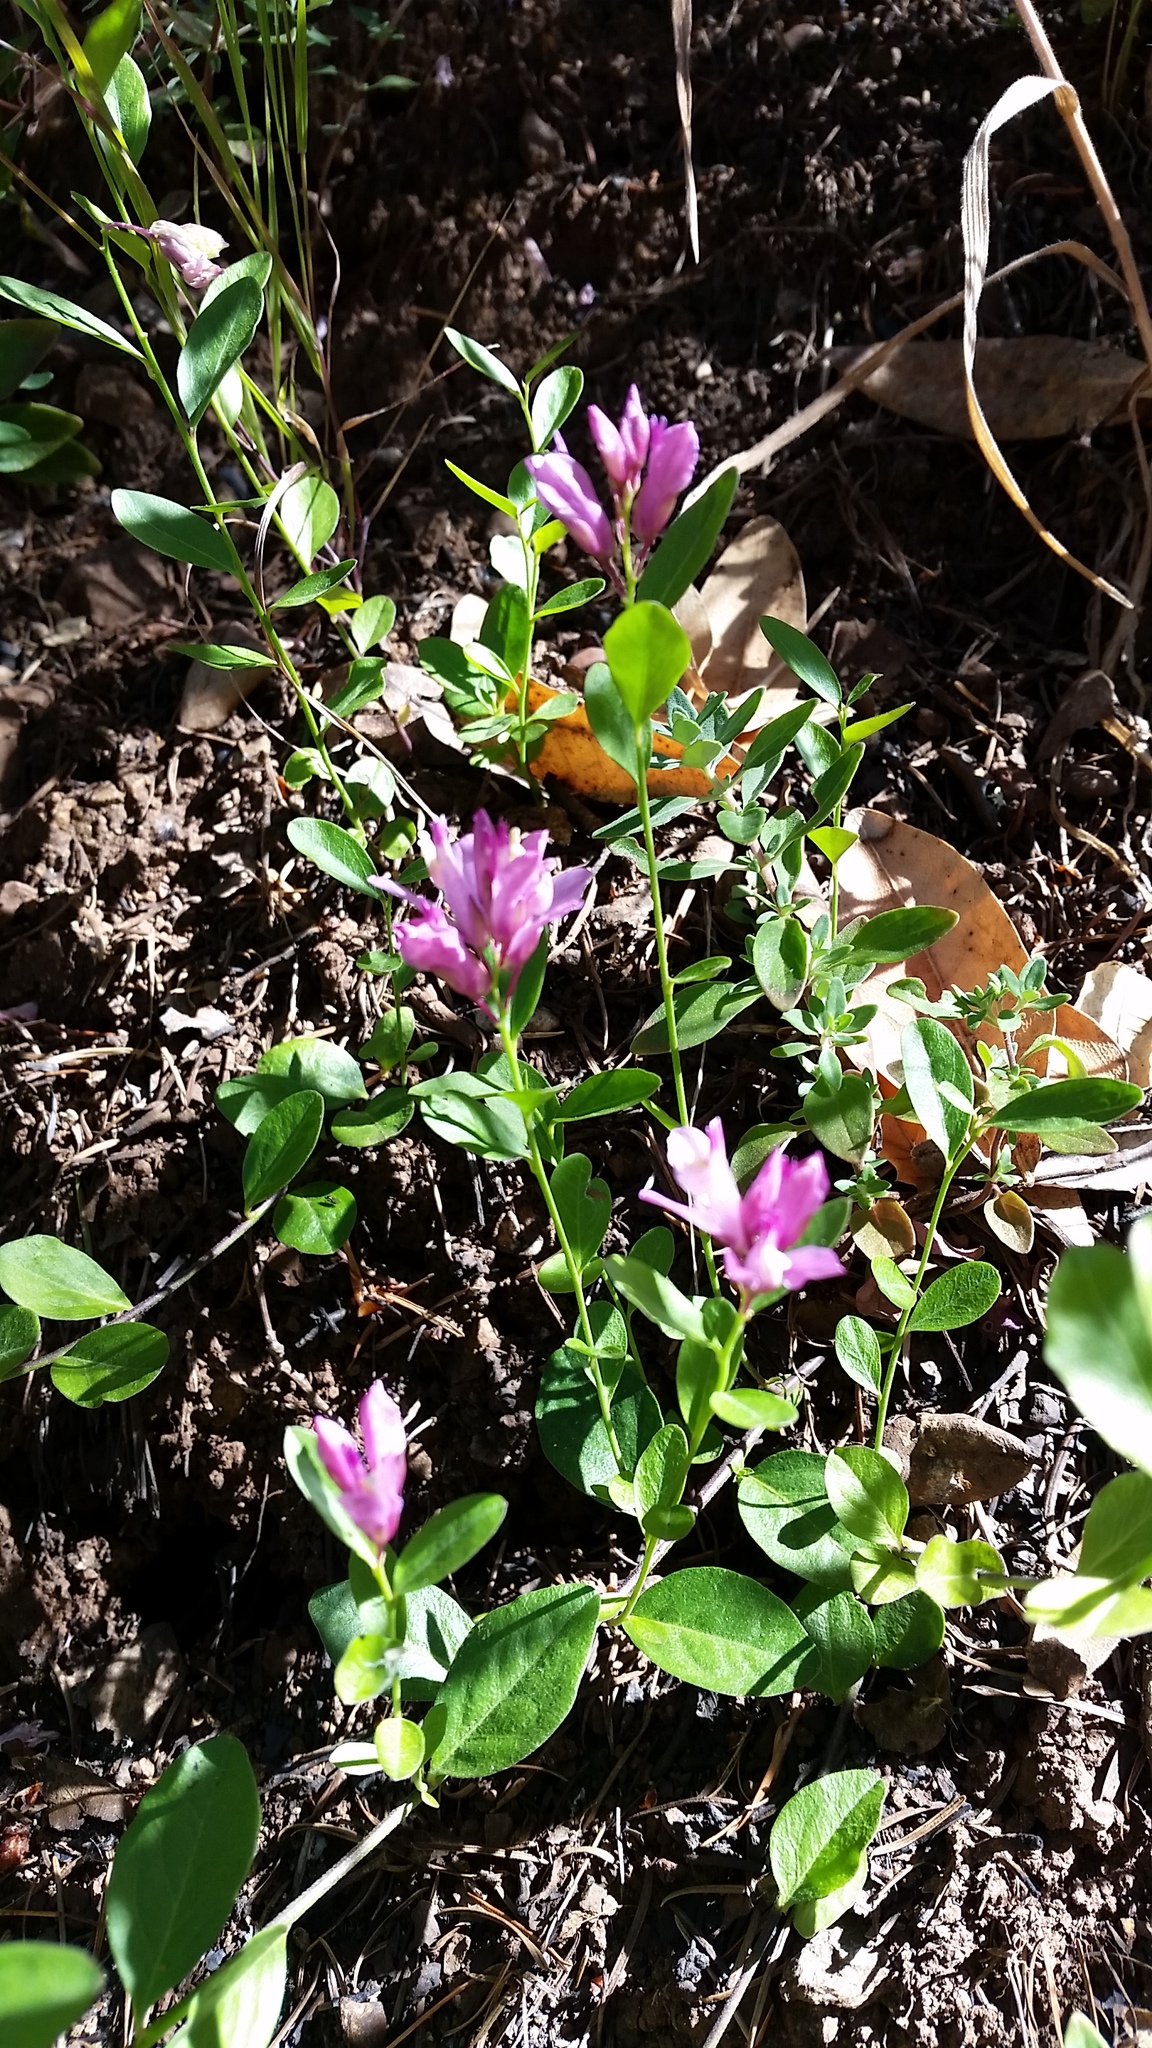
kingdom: Plantae
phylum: Tracheophyta
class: Magnoliopsida
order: Fabales
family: Polygalaceae
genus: Rhinotropis
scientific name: Rhinotropis californica
